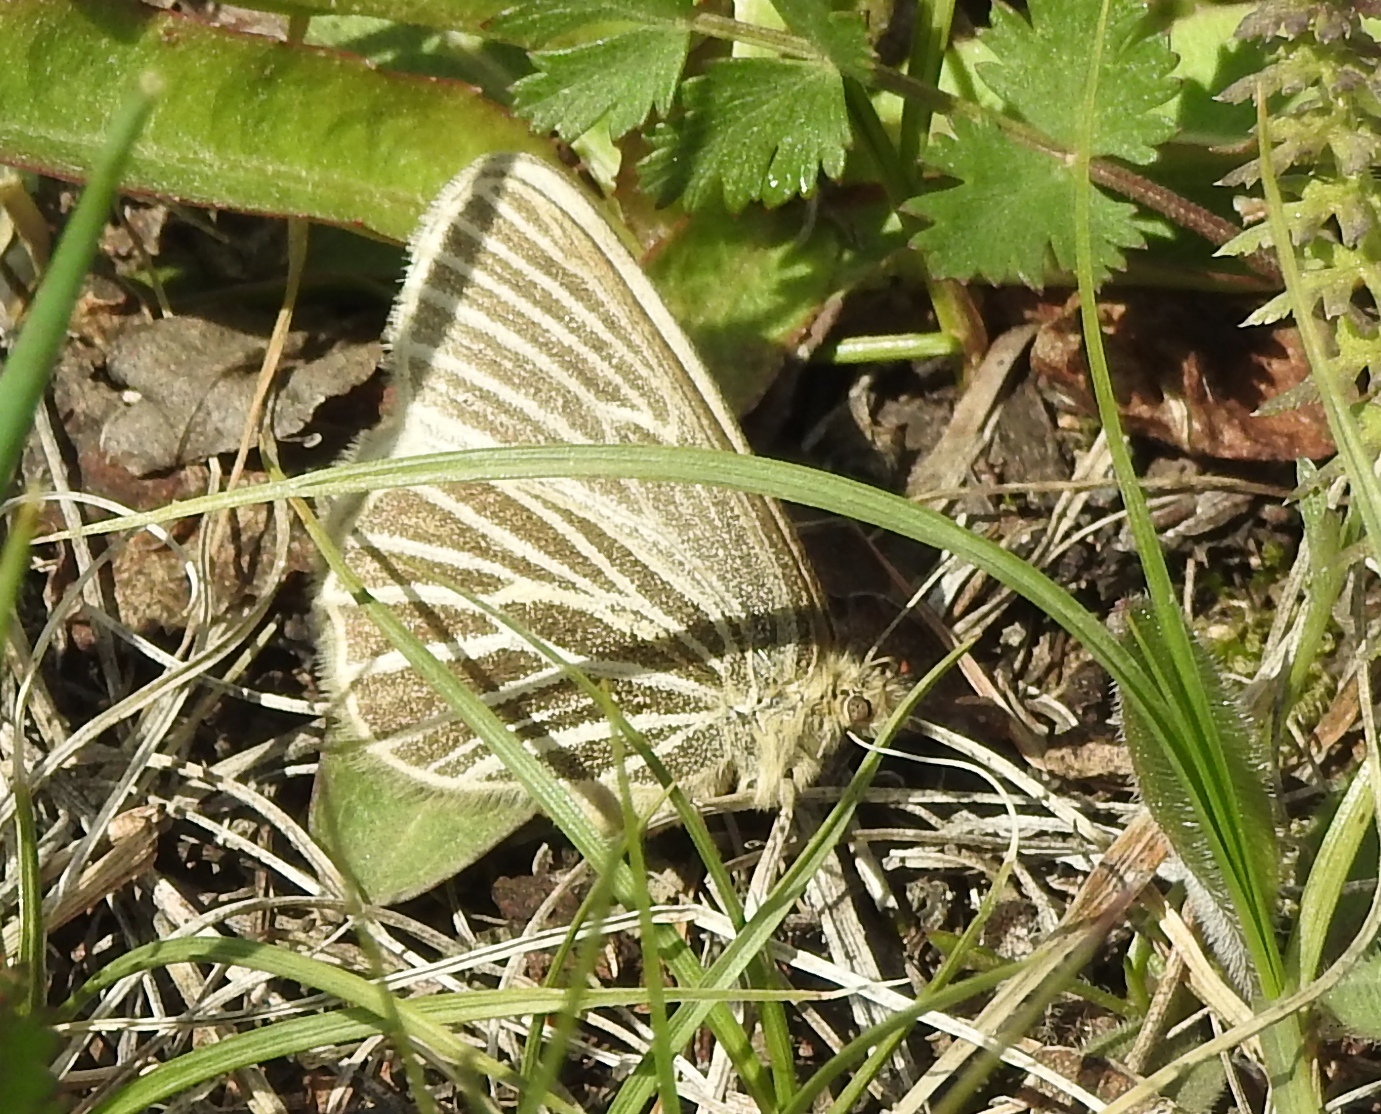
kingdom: Animalia
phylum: Arthropoda
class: Insecta
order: Lepidoptera
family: Nymphalidae
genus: Triphysa
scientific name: Triphysa phryne
